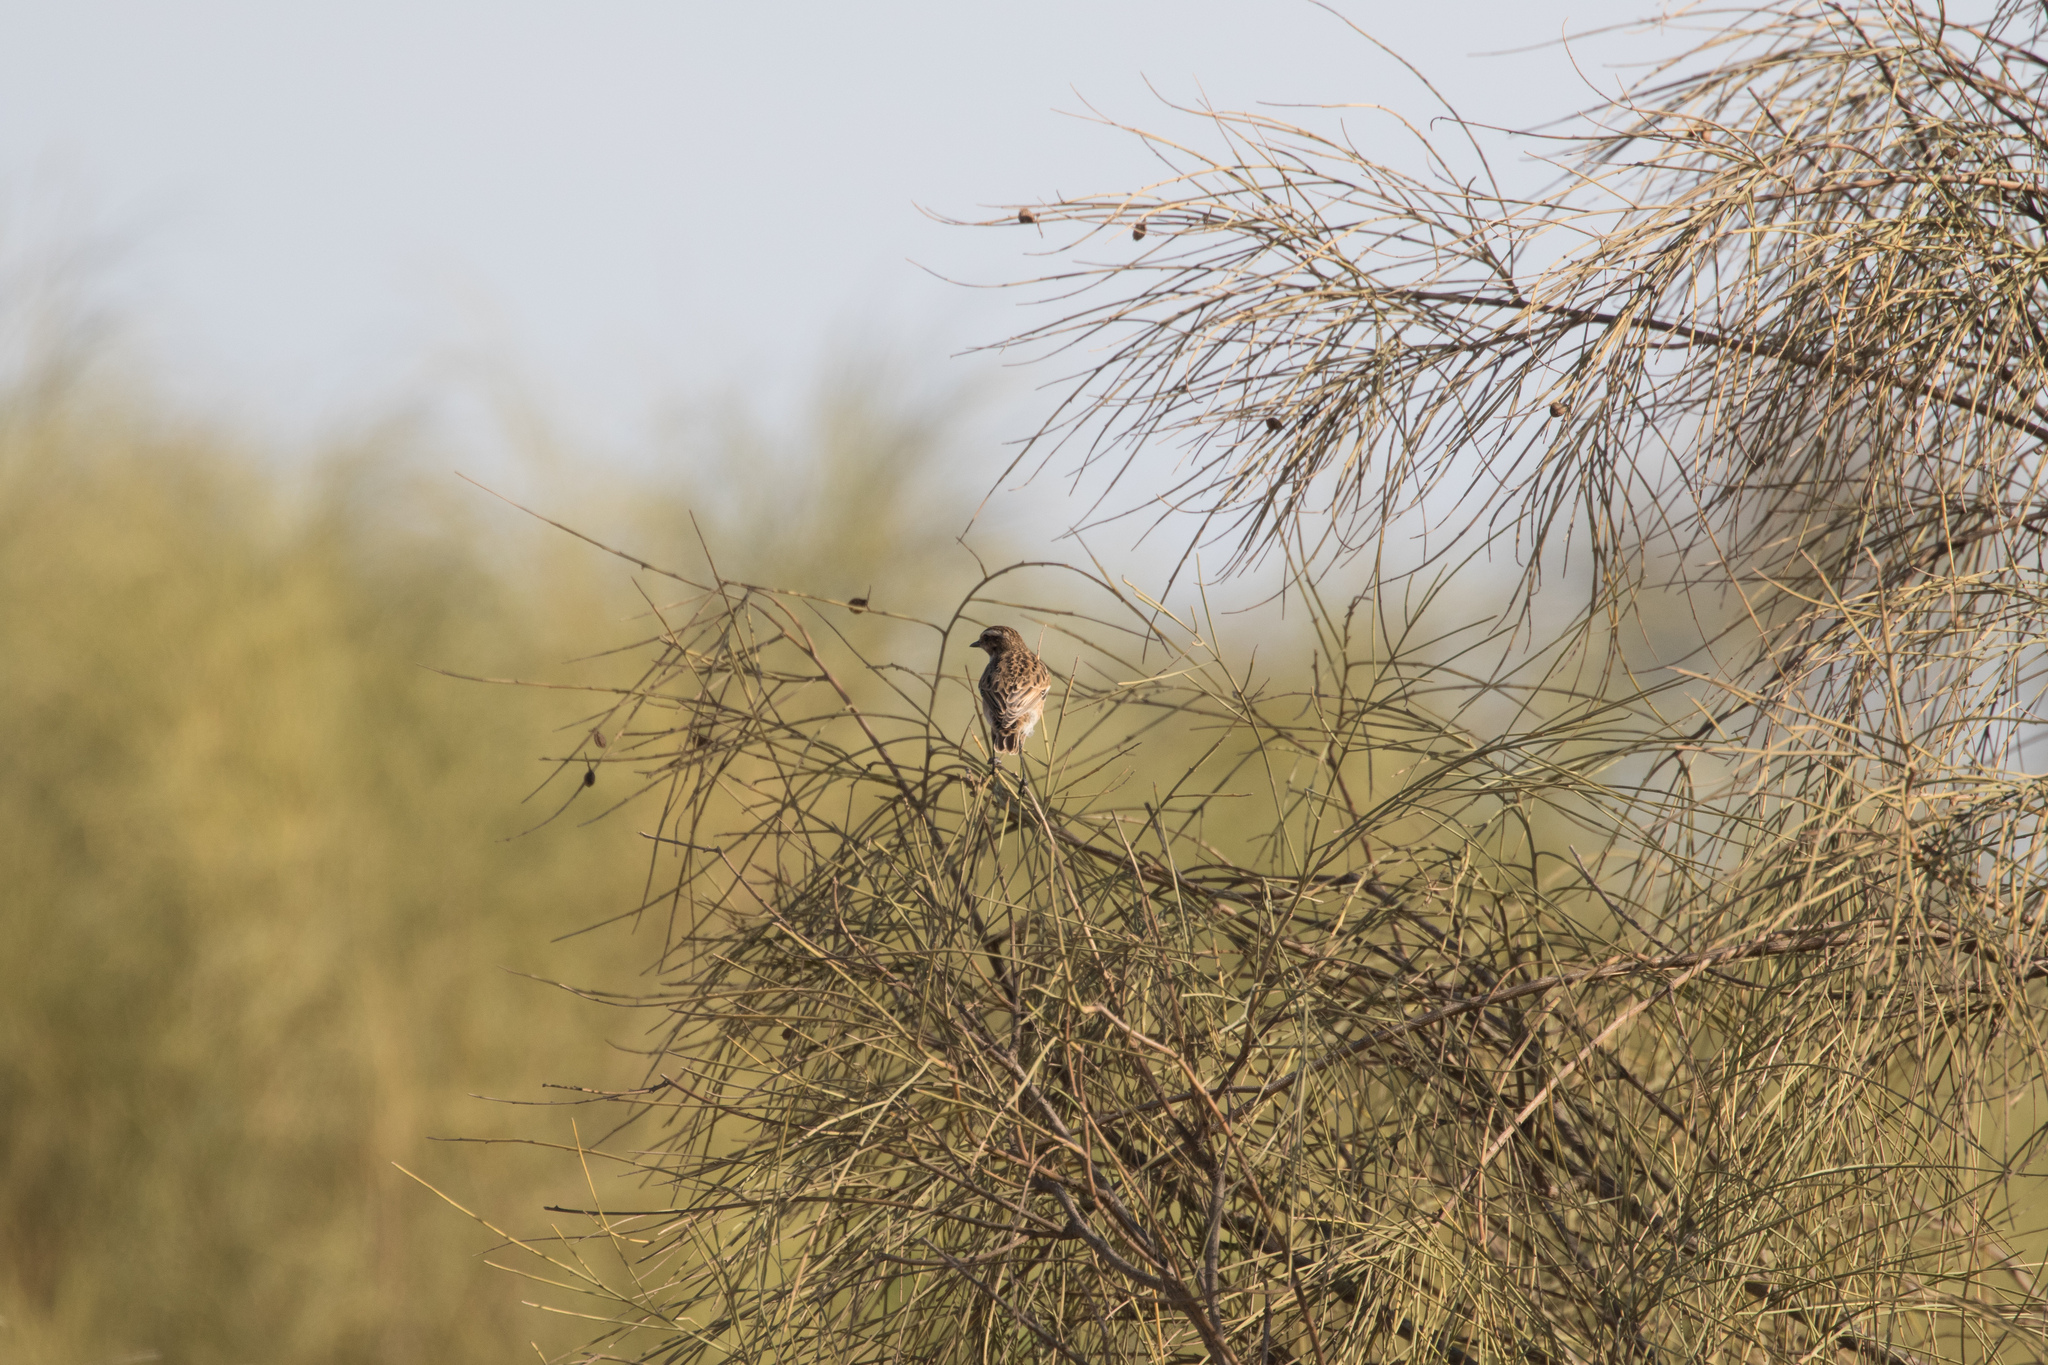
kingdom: Animalia
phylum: Chordata
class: Aves
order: Passeriformes
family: Muscicapidae
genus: Saxicola
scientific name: Saxicola rubetra
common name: Whinchat
